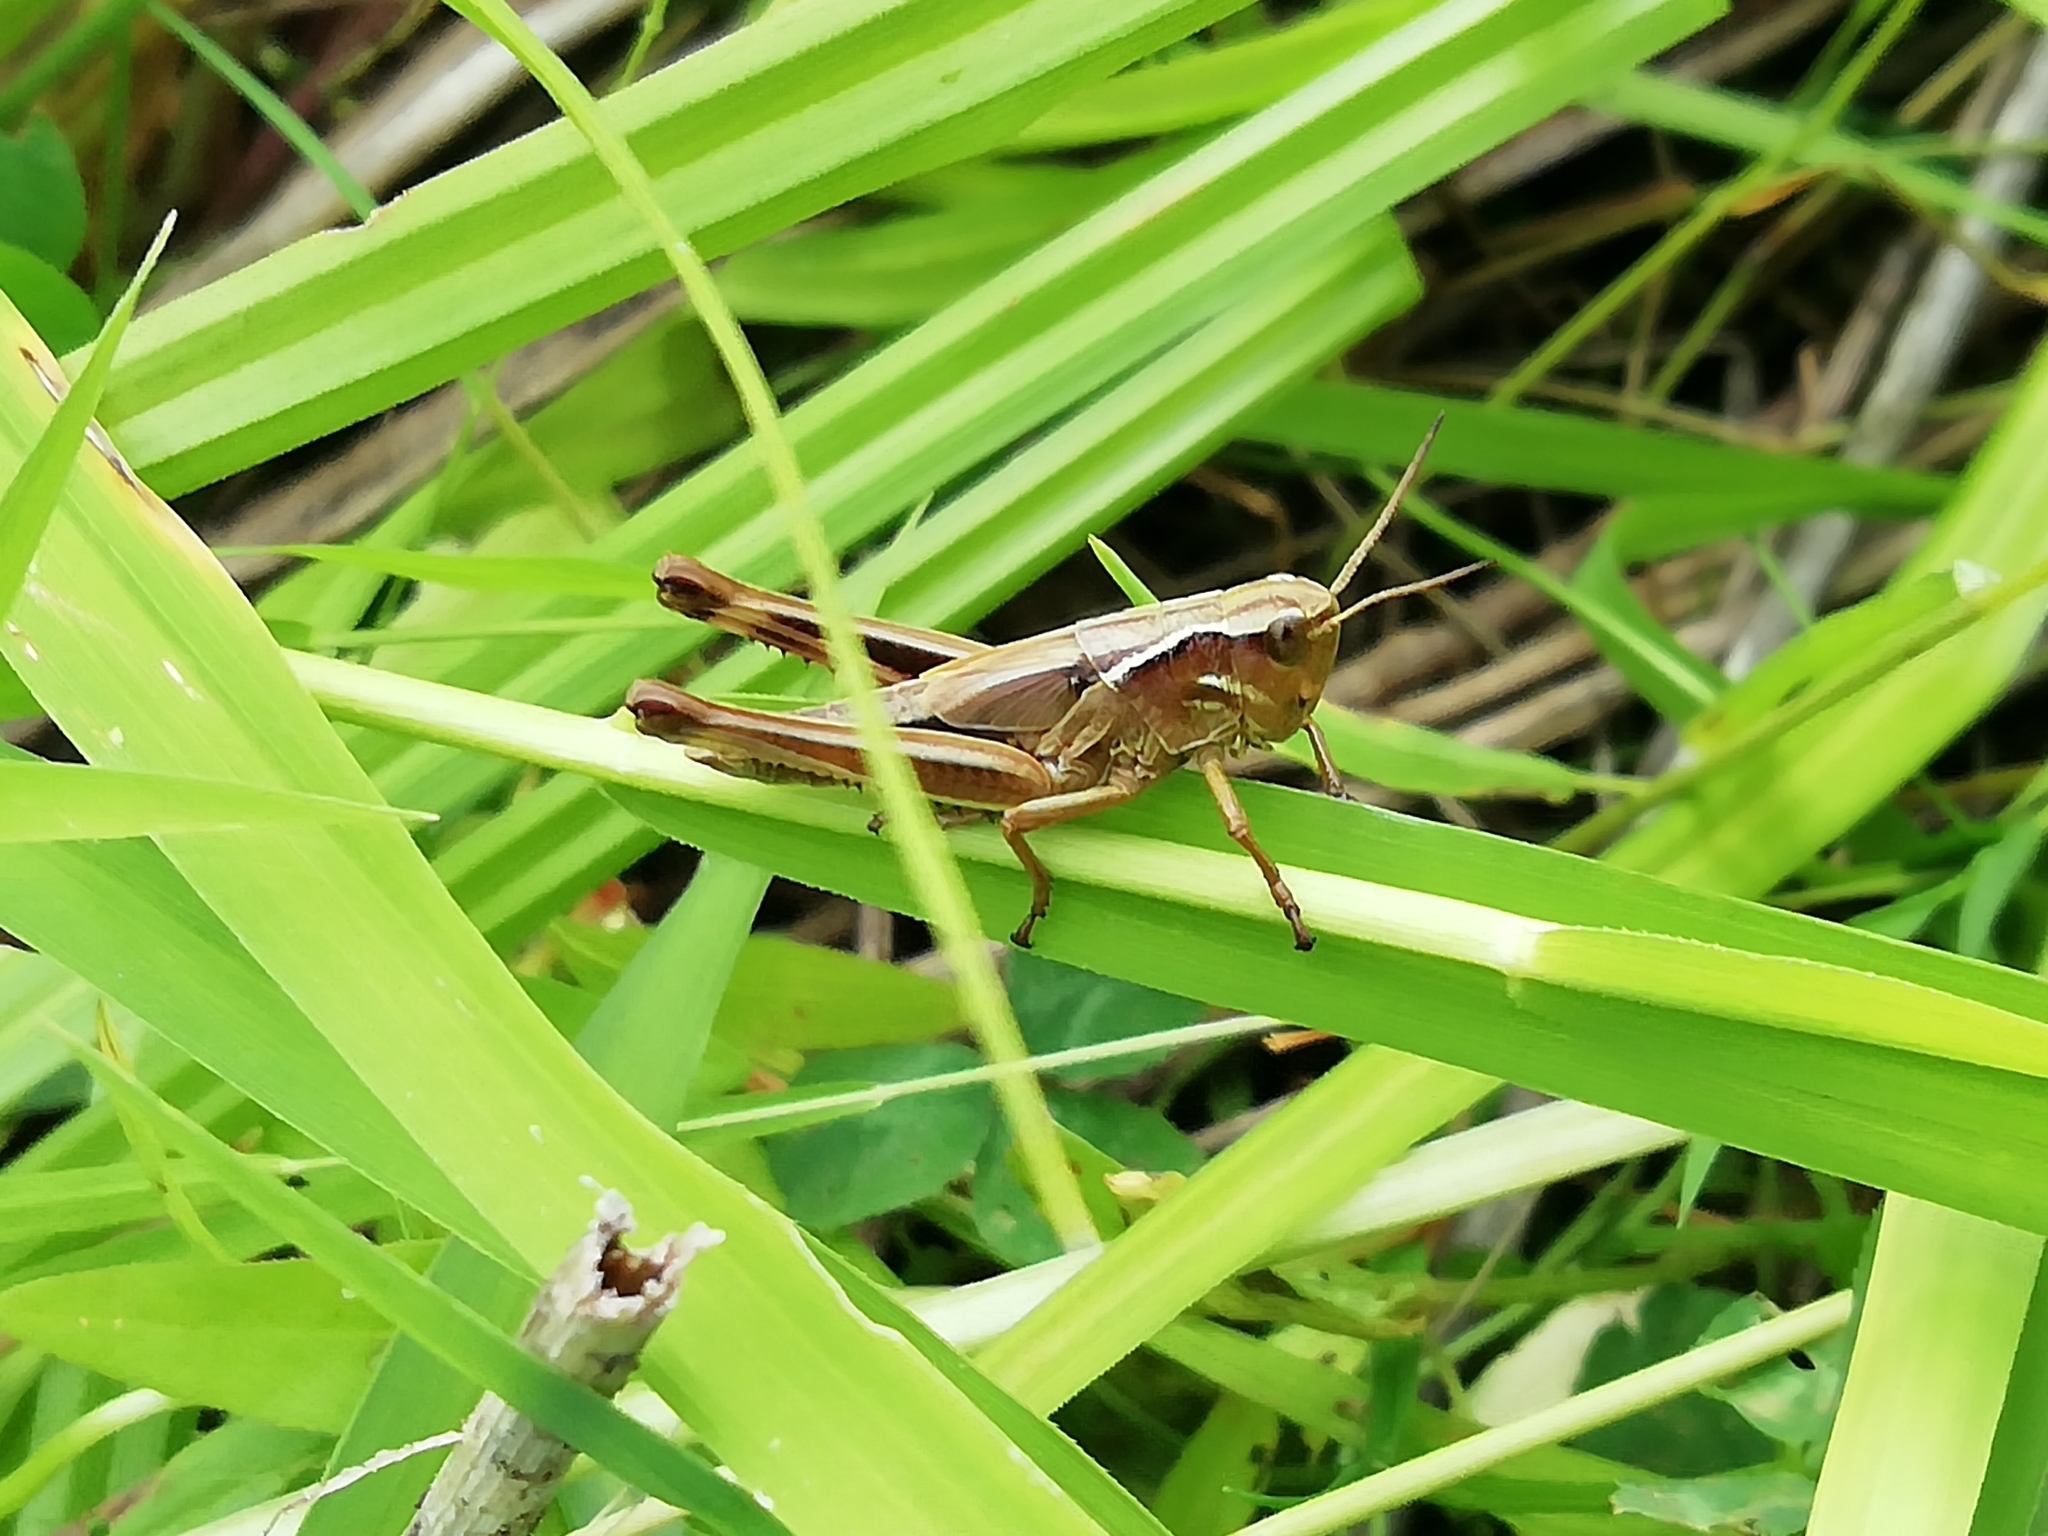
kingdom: Animalia
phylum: Arthropoda
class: Insecta
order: Orthoptera
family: Acrididae
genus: Stethophyma
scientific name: Stethophyma grossum
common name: Large marsh grasshopper
